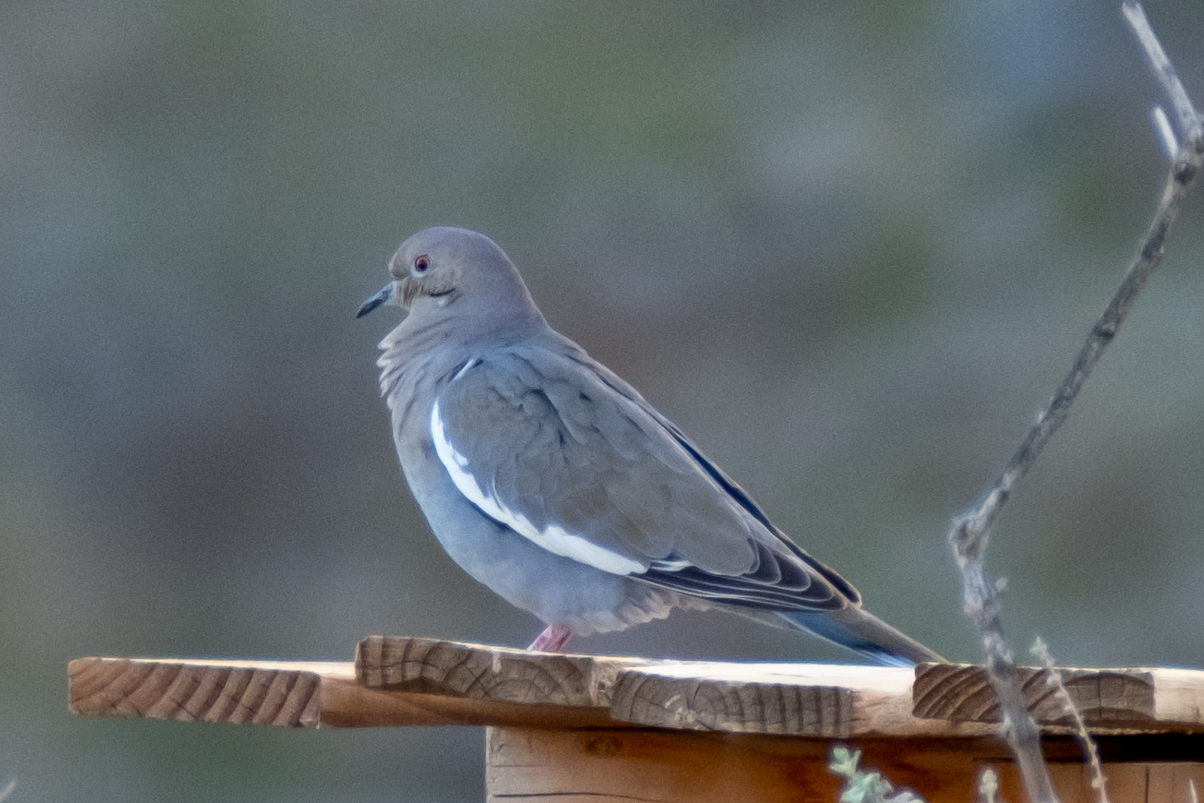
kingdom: Animalia
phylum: Chordata
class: Aves
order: Columbiformes
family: Columbidae
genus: Zenaida
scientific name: Zenaida asiatica
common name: White-winged dove
